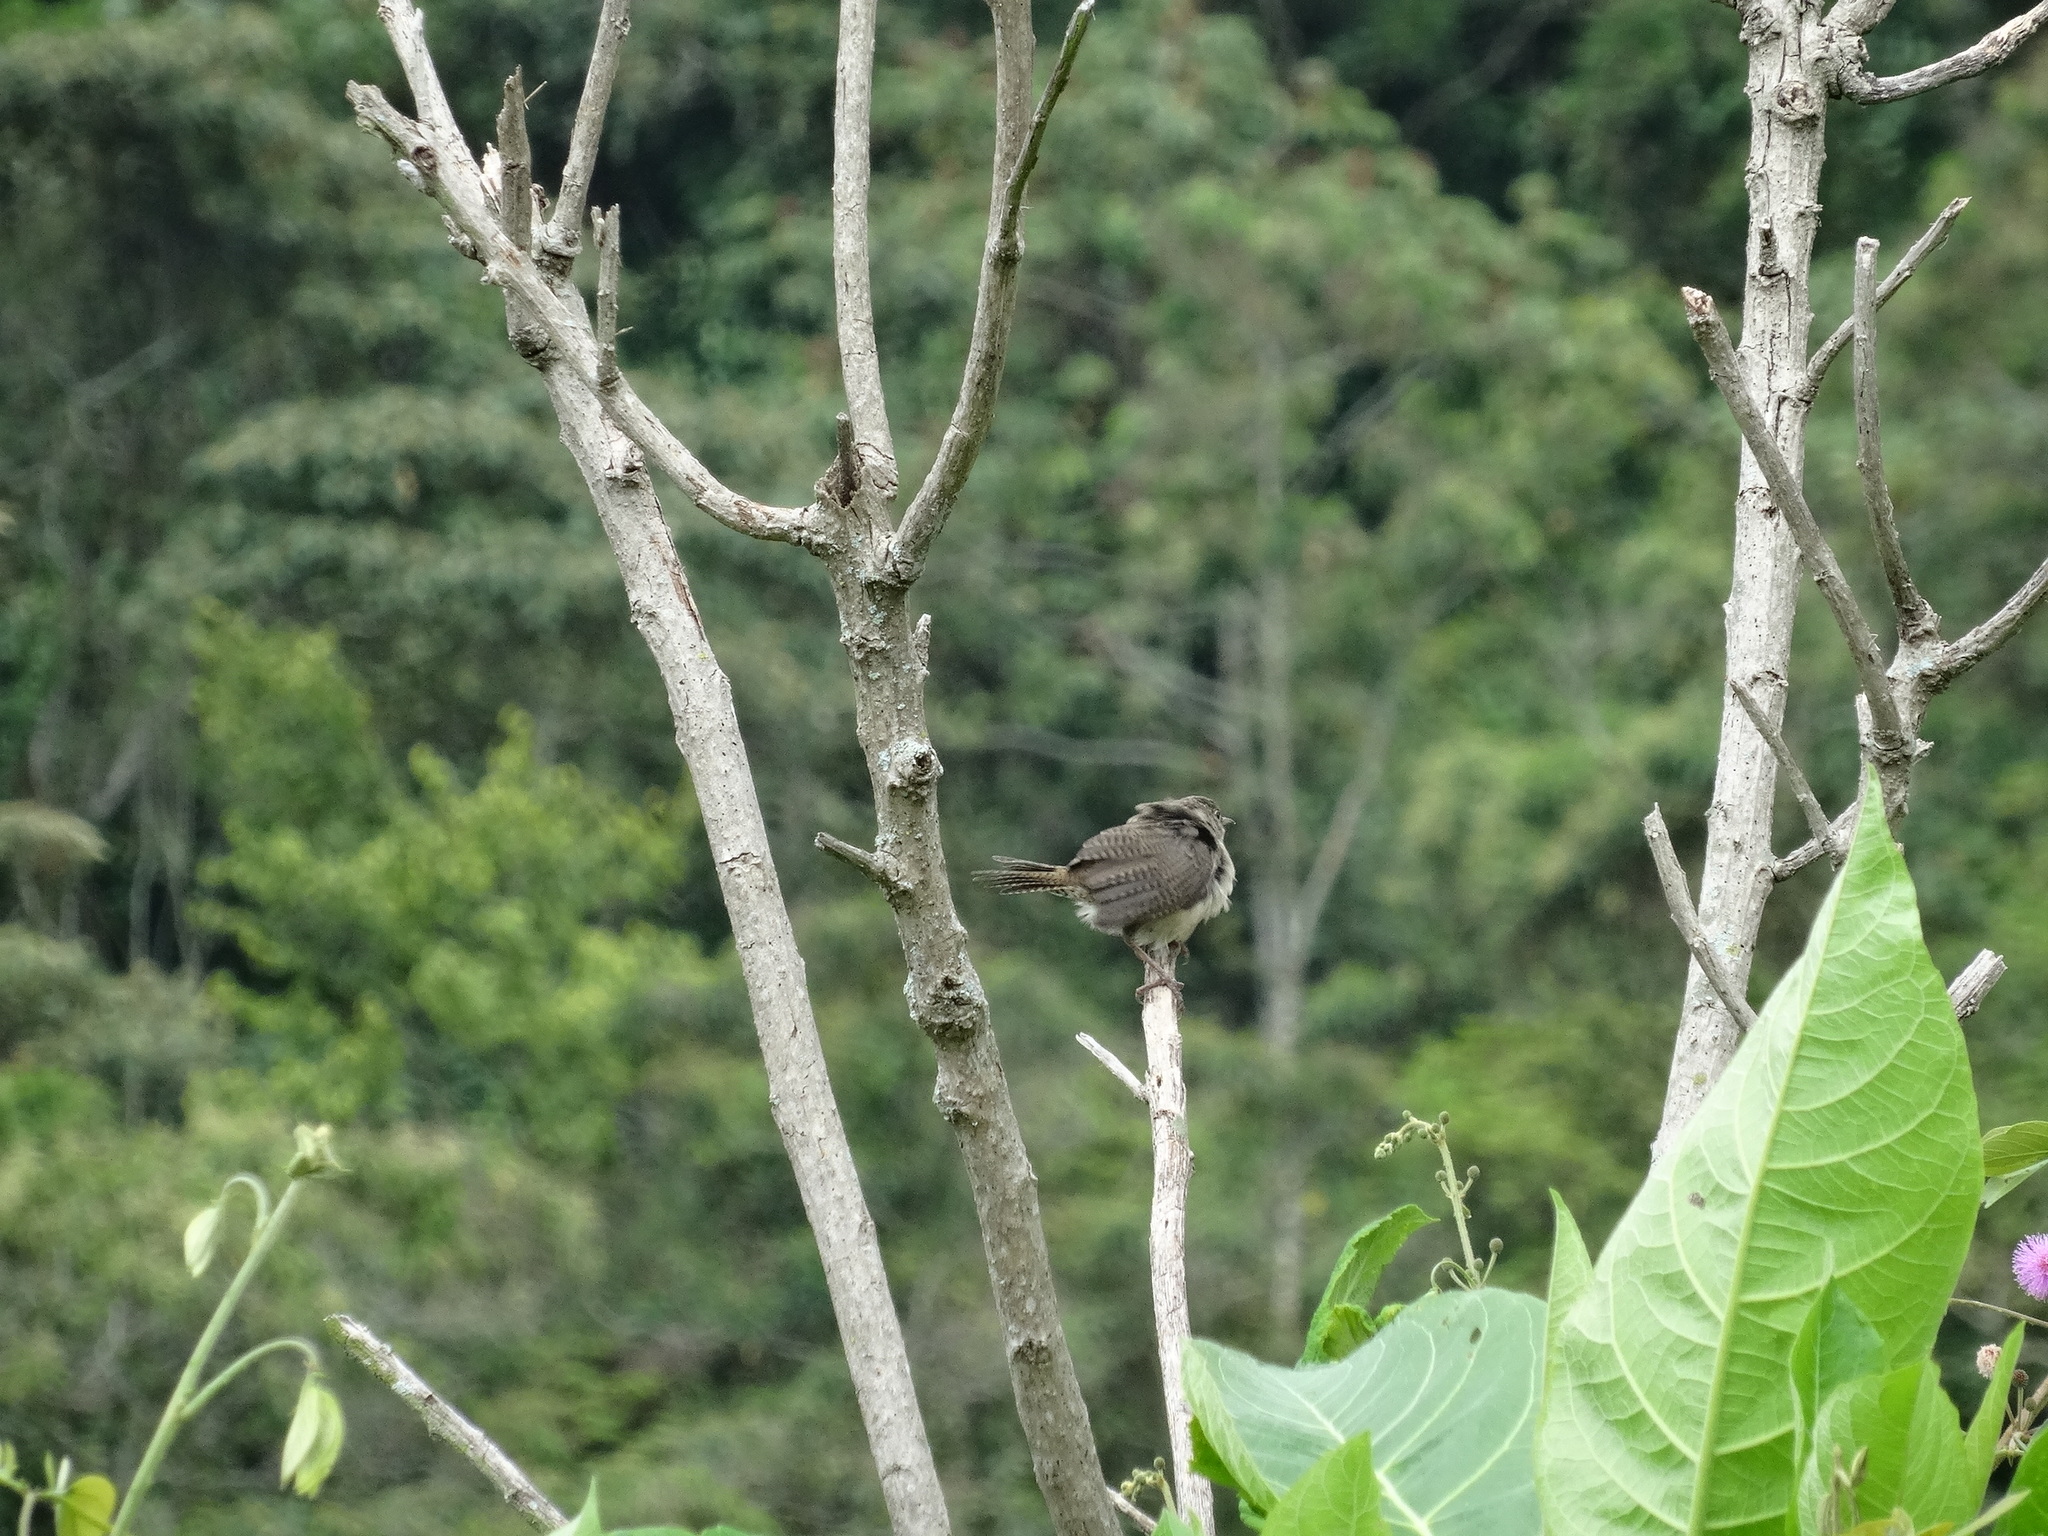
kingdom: Animalia
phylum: Chordata
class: Aves
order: Passeriformes
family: Troglodytidae
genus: Troglodytes
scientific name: Troglodytes aedon
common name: House wren
